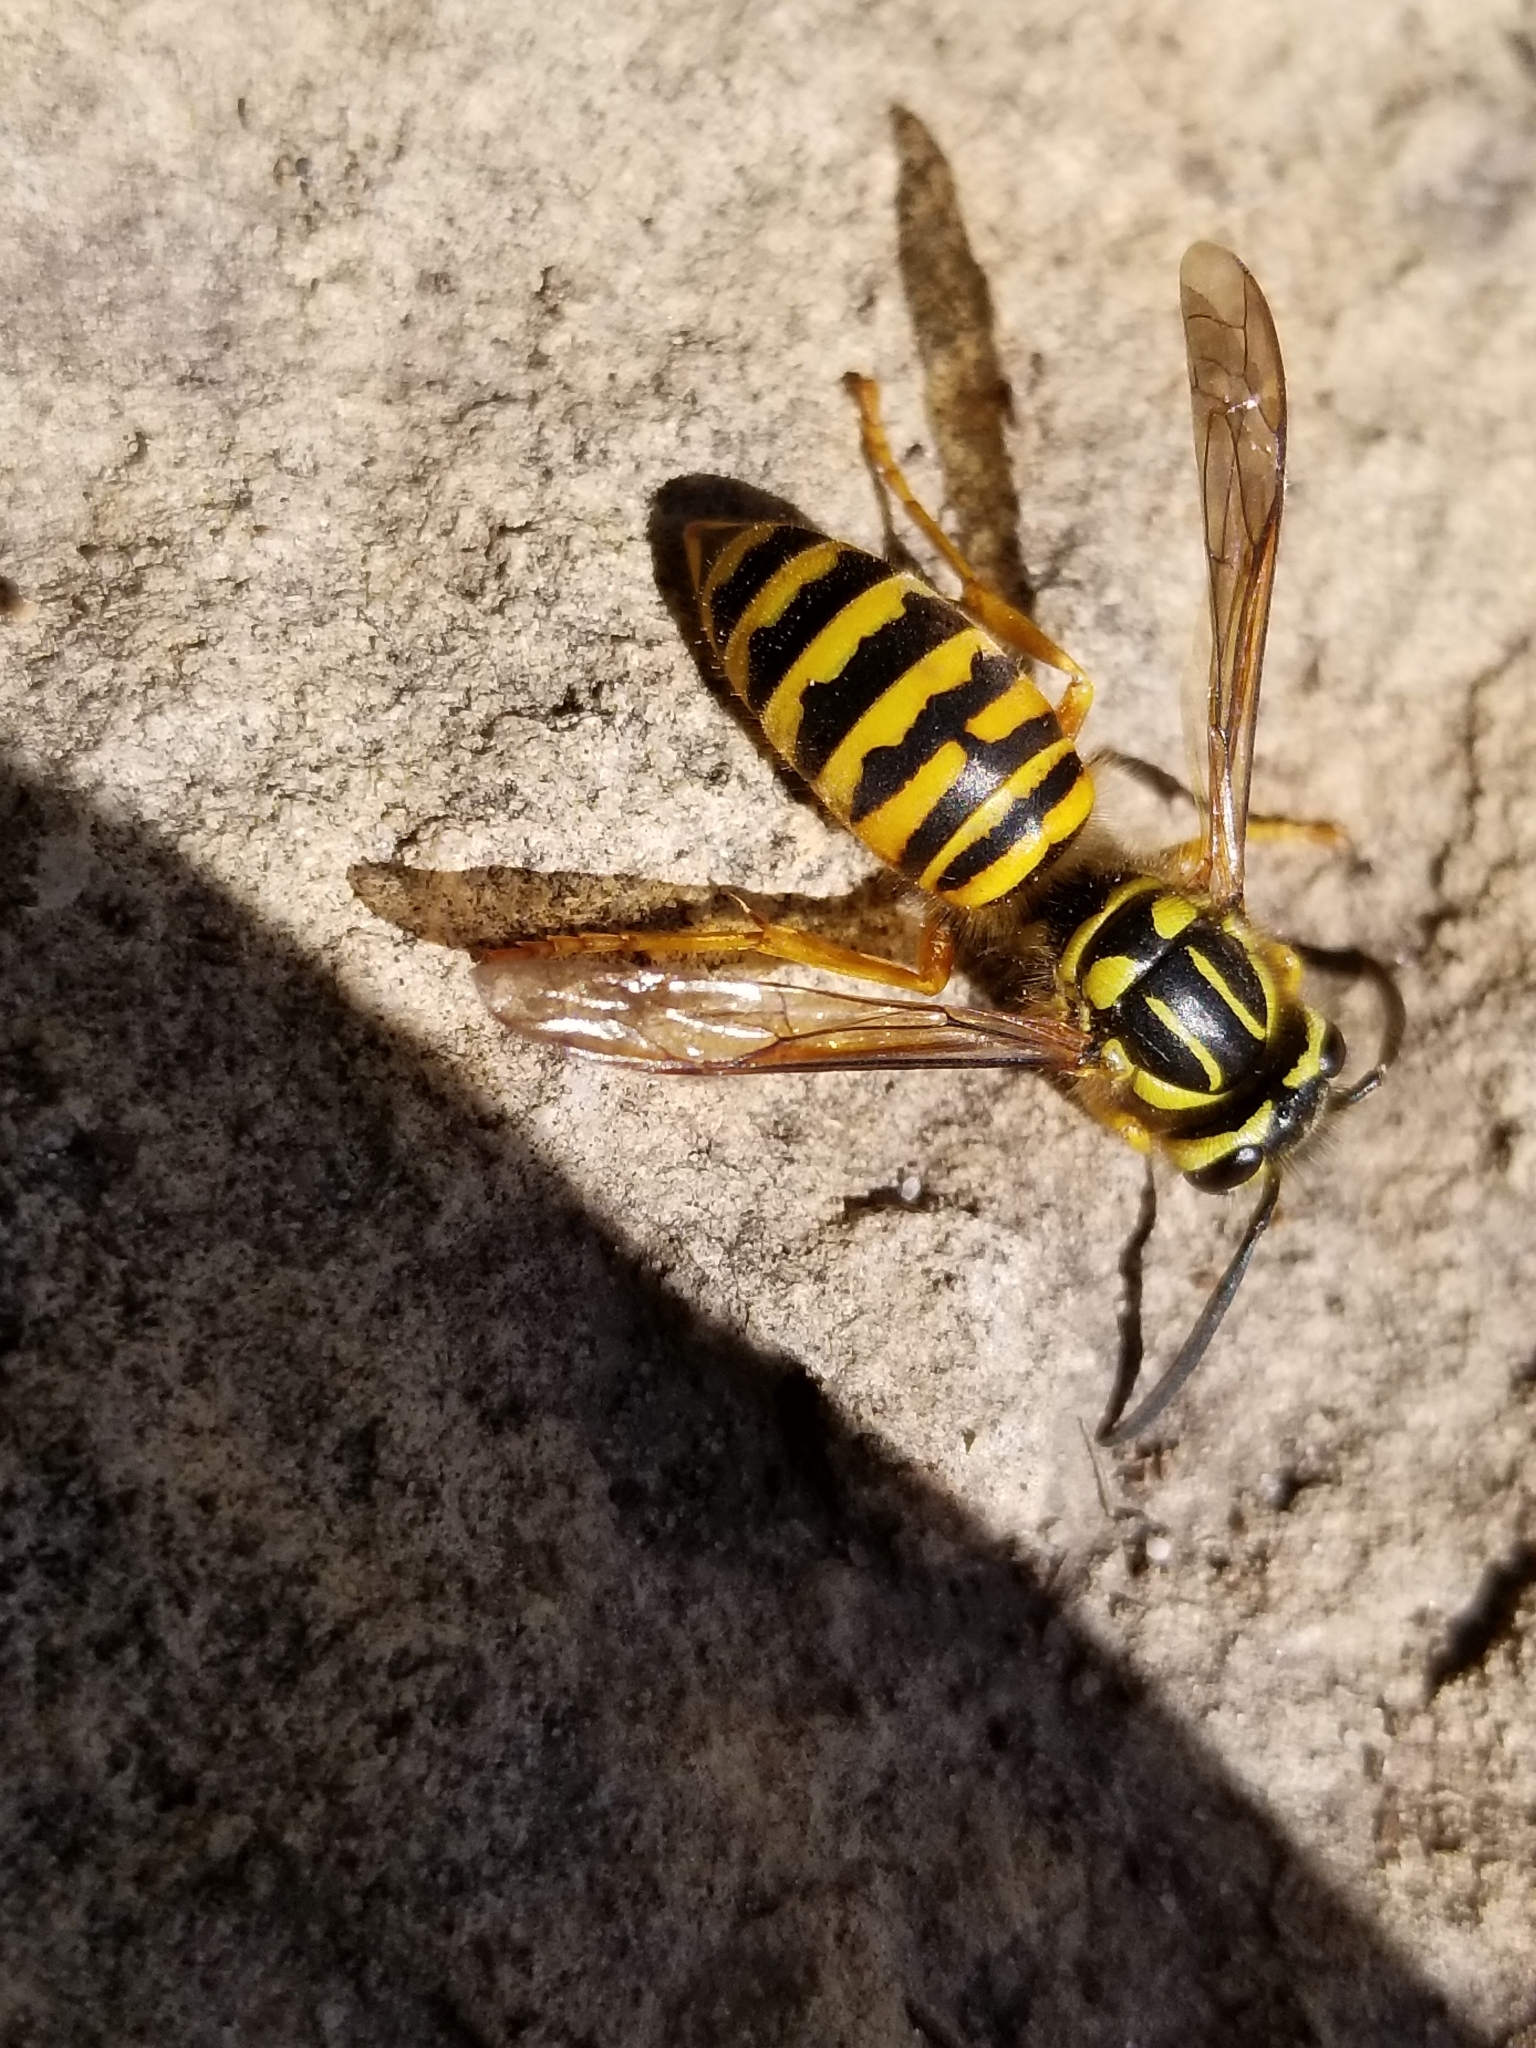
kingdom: Animalia
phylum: Arthropoda
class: Insecta
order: Hymenoptera
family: Vespidae
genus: Vespula
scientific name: Vespula squamosa
